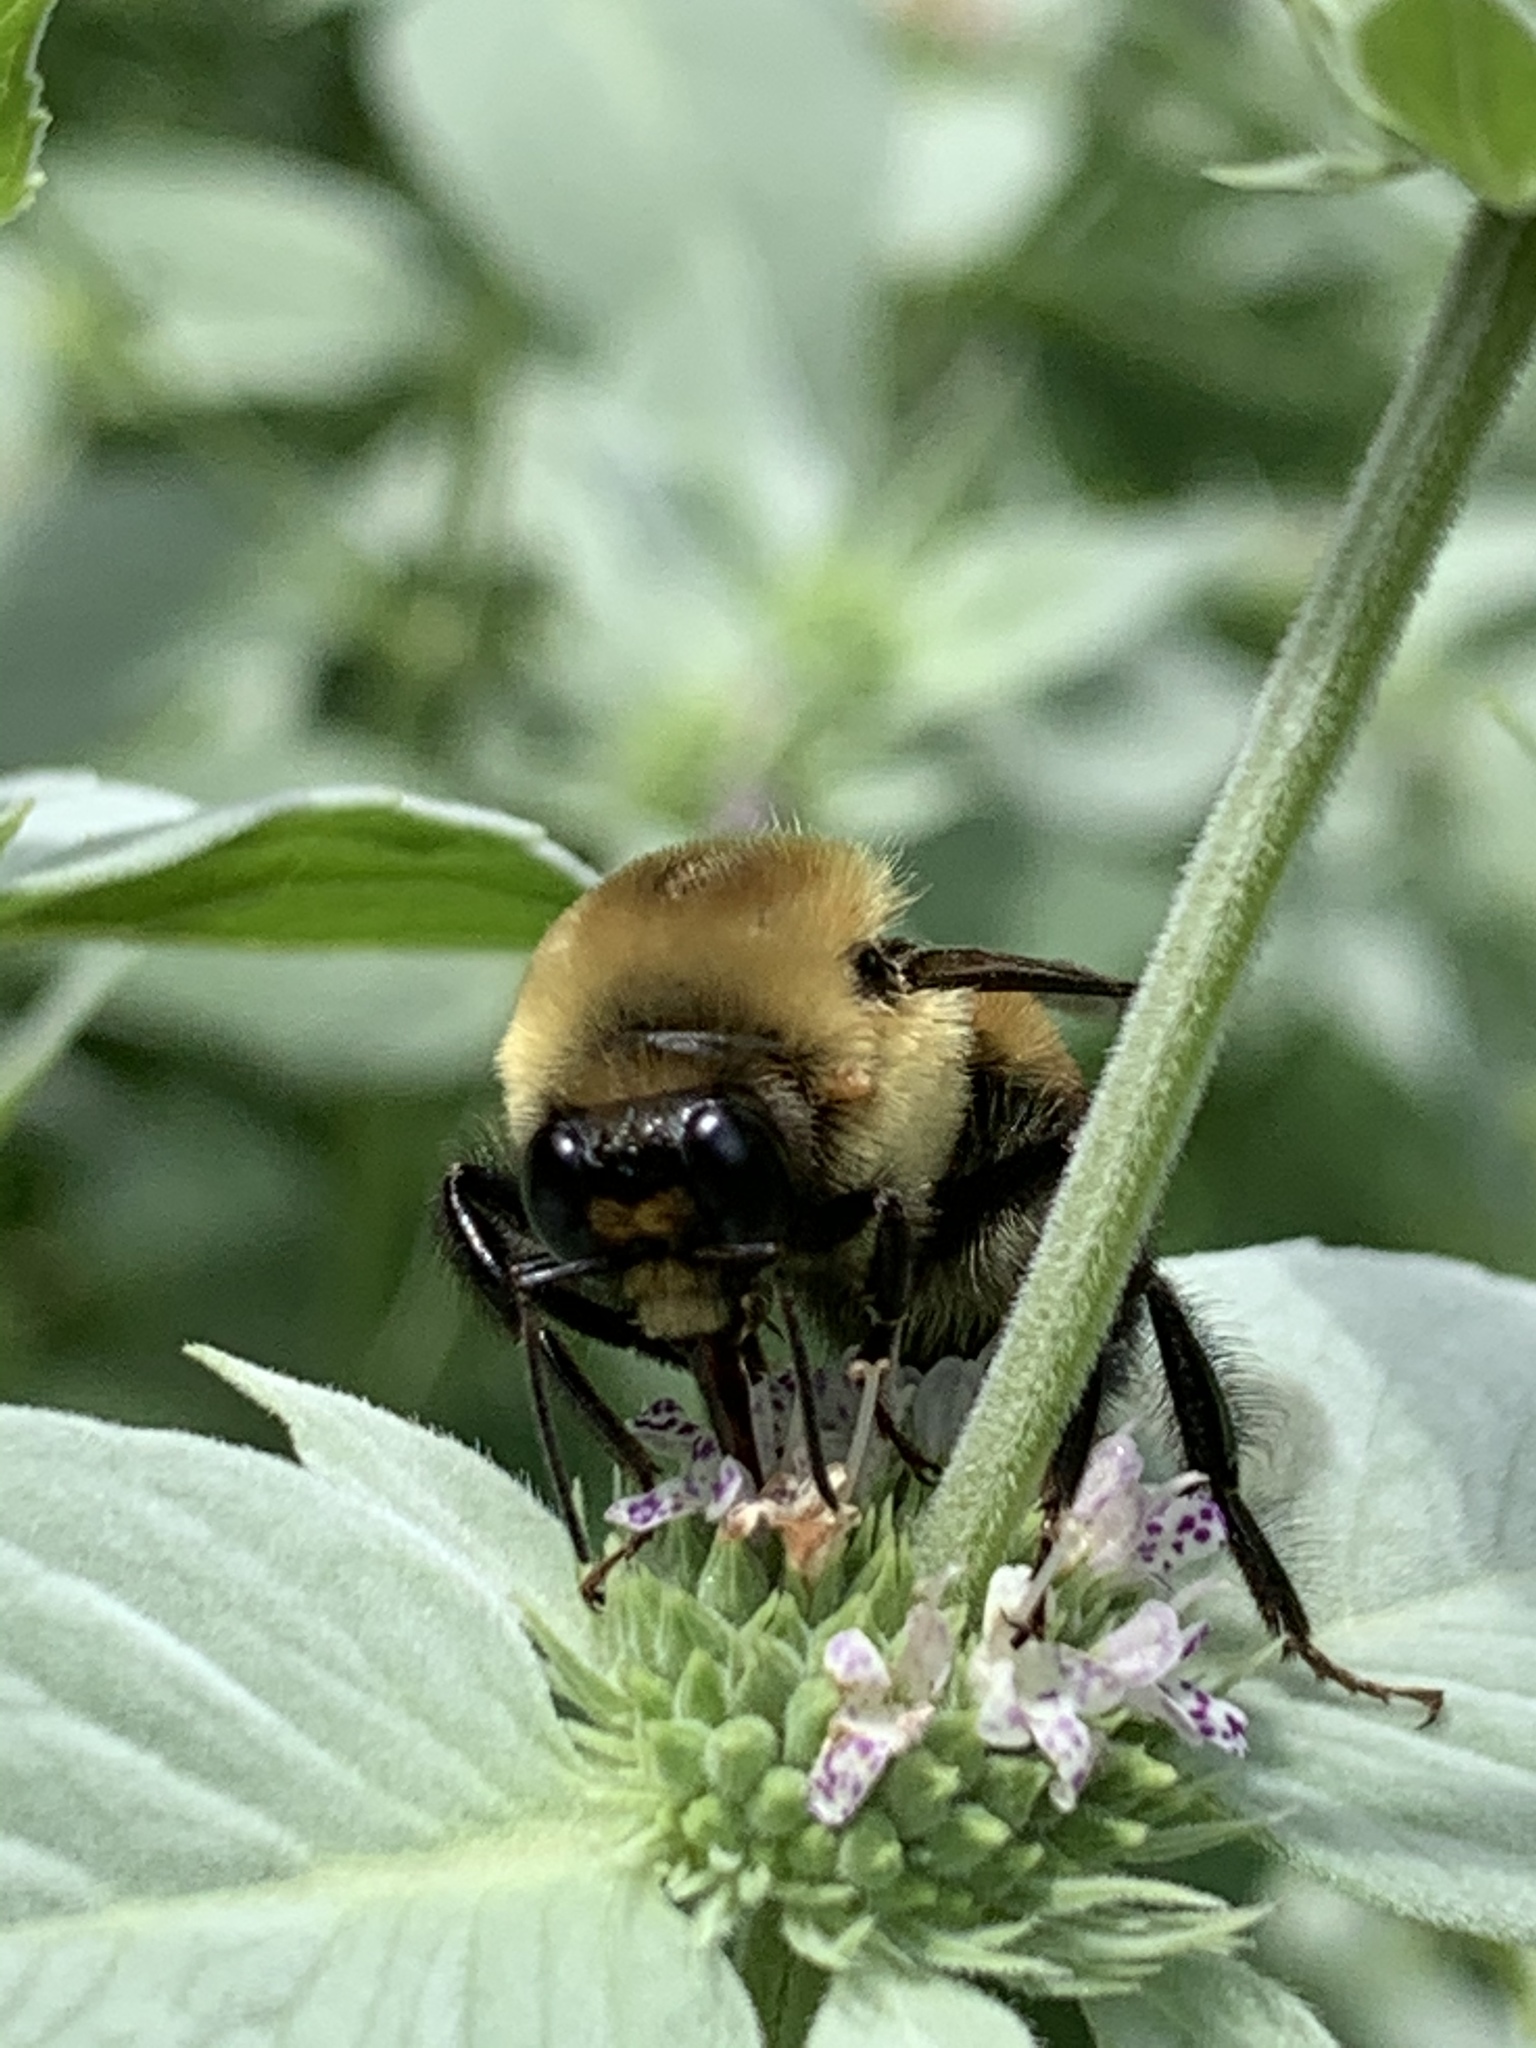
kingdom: Animalia
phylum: Arthropoda
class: Insecta
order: Hymenoptera
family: Apidae
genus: Bombus
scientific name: Bombus griseocollis
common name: Brown-belted bumble bee
